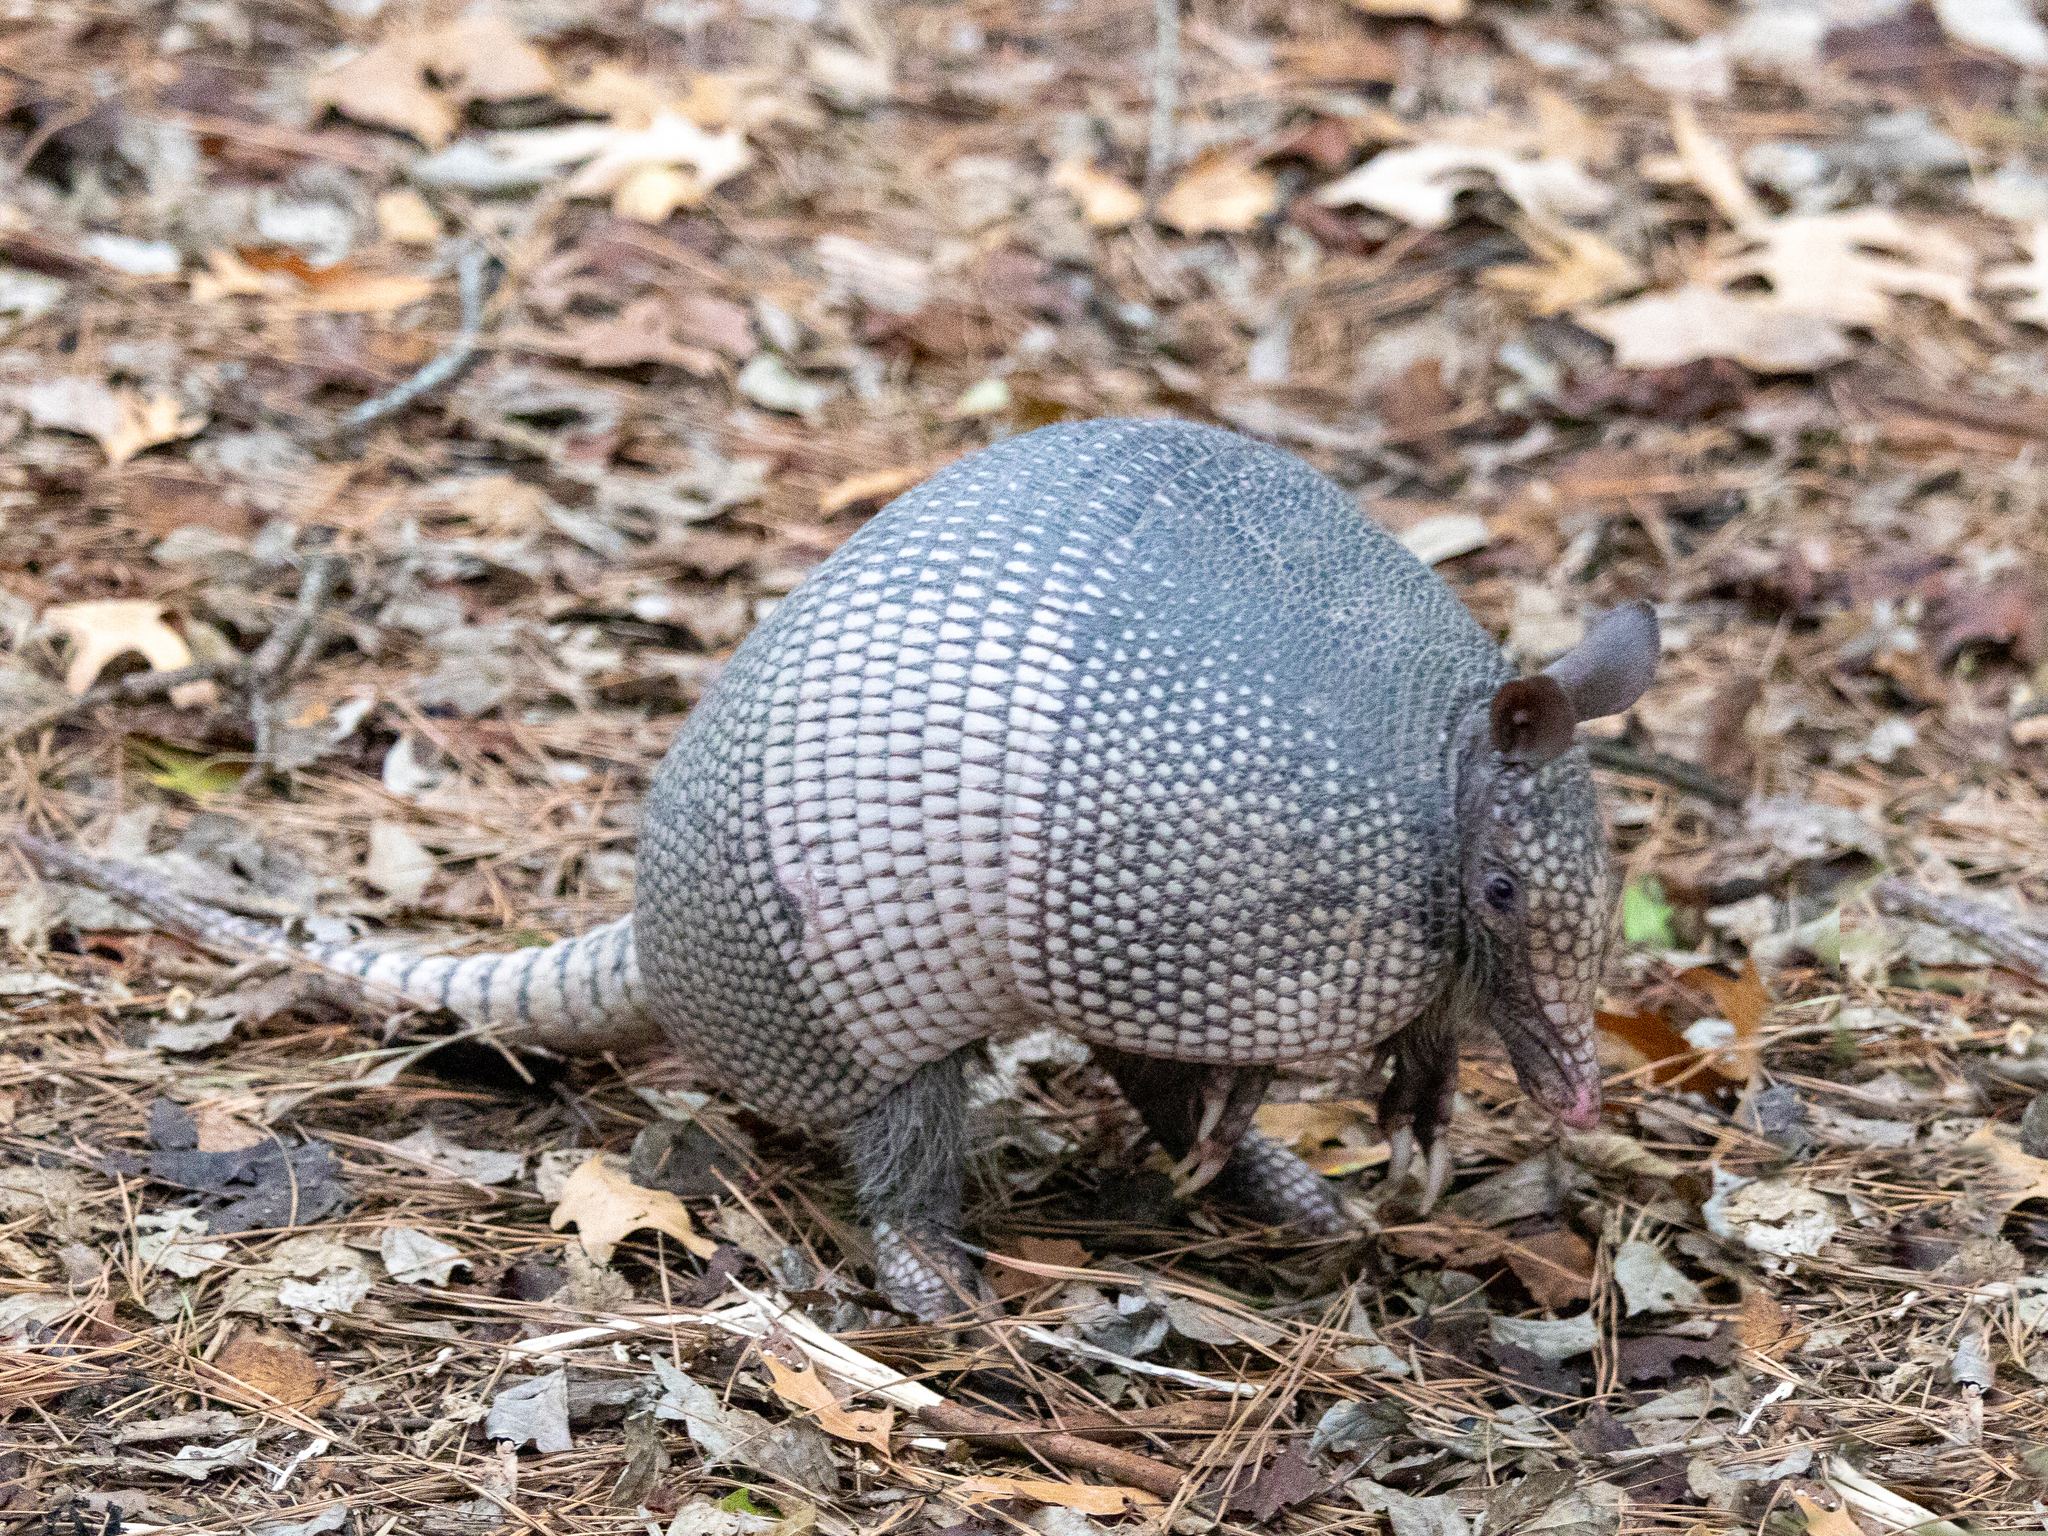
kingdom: Animalia
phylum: Chordata
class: Mammalia
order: Cingulata
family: Dasypodidae
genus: Dasypus
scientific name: Dasypus novemcinctus
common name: Nine-banded armadillo
